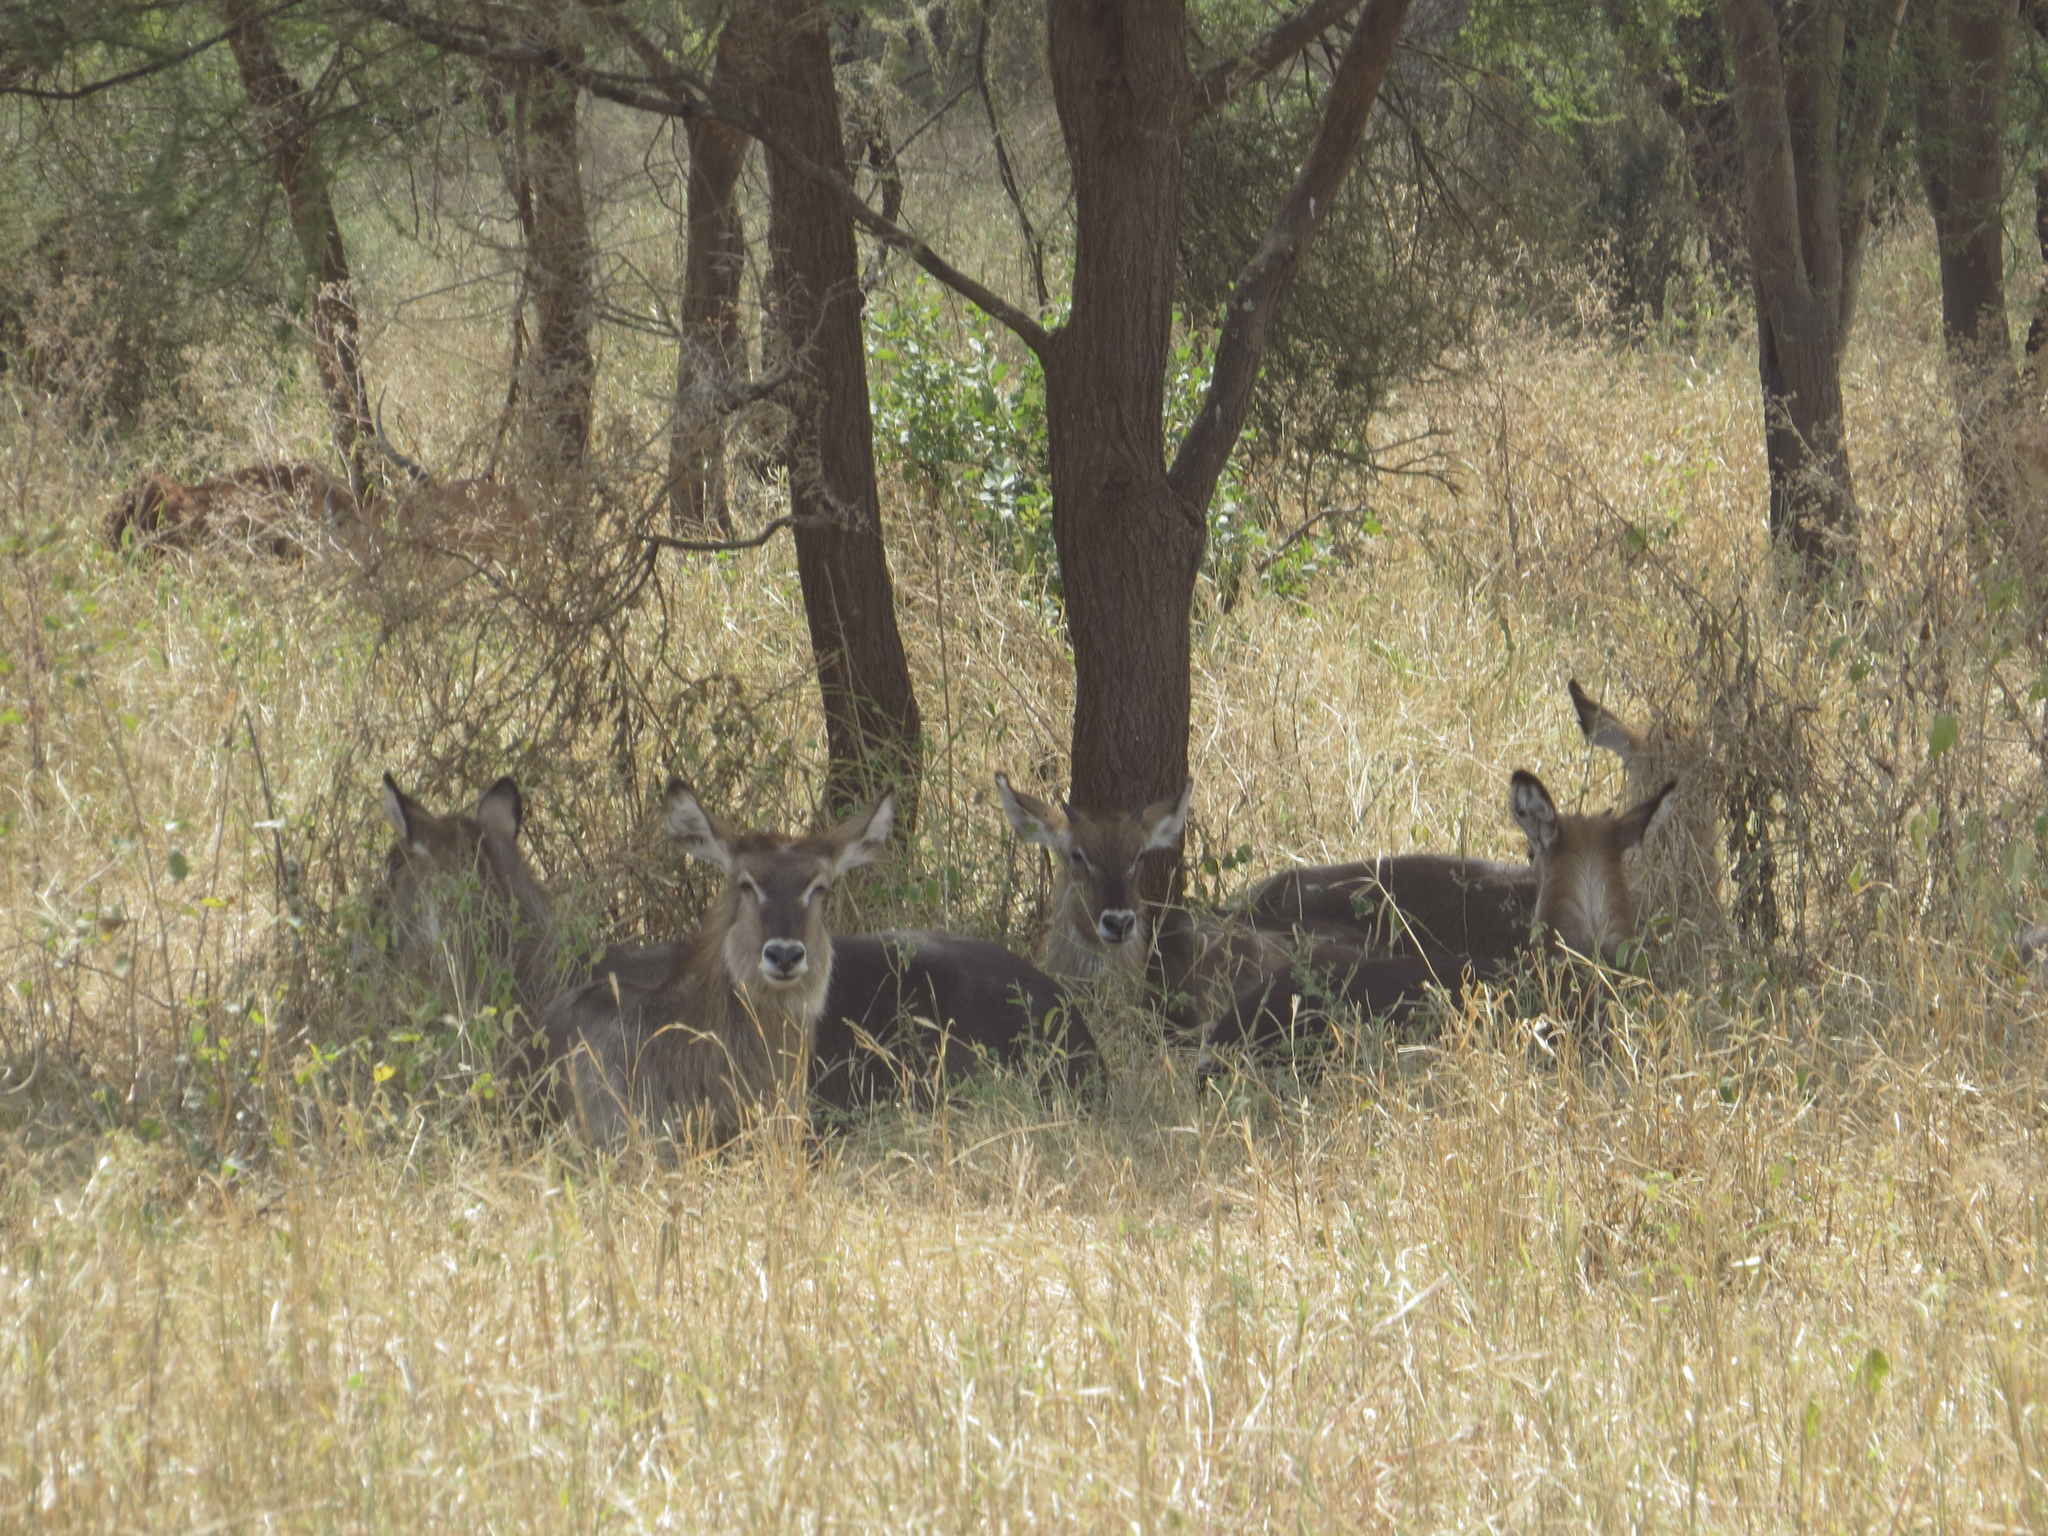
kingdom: Animalia
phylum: Chordata
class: Mammalia
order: Artiodactyla
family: Bovidae
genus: Kobus
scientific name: Kobus ellipsiprymnus
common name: Waterbuck
